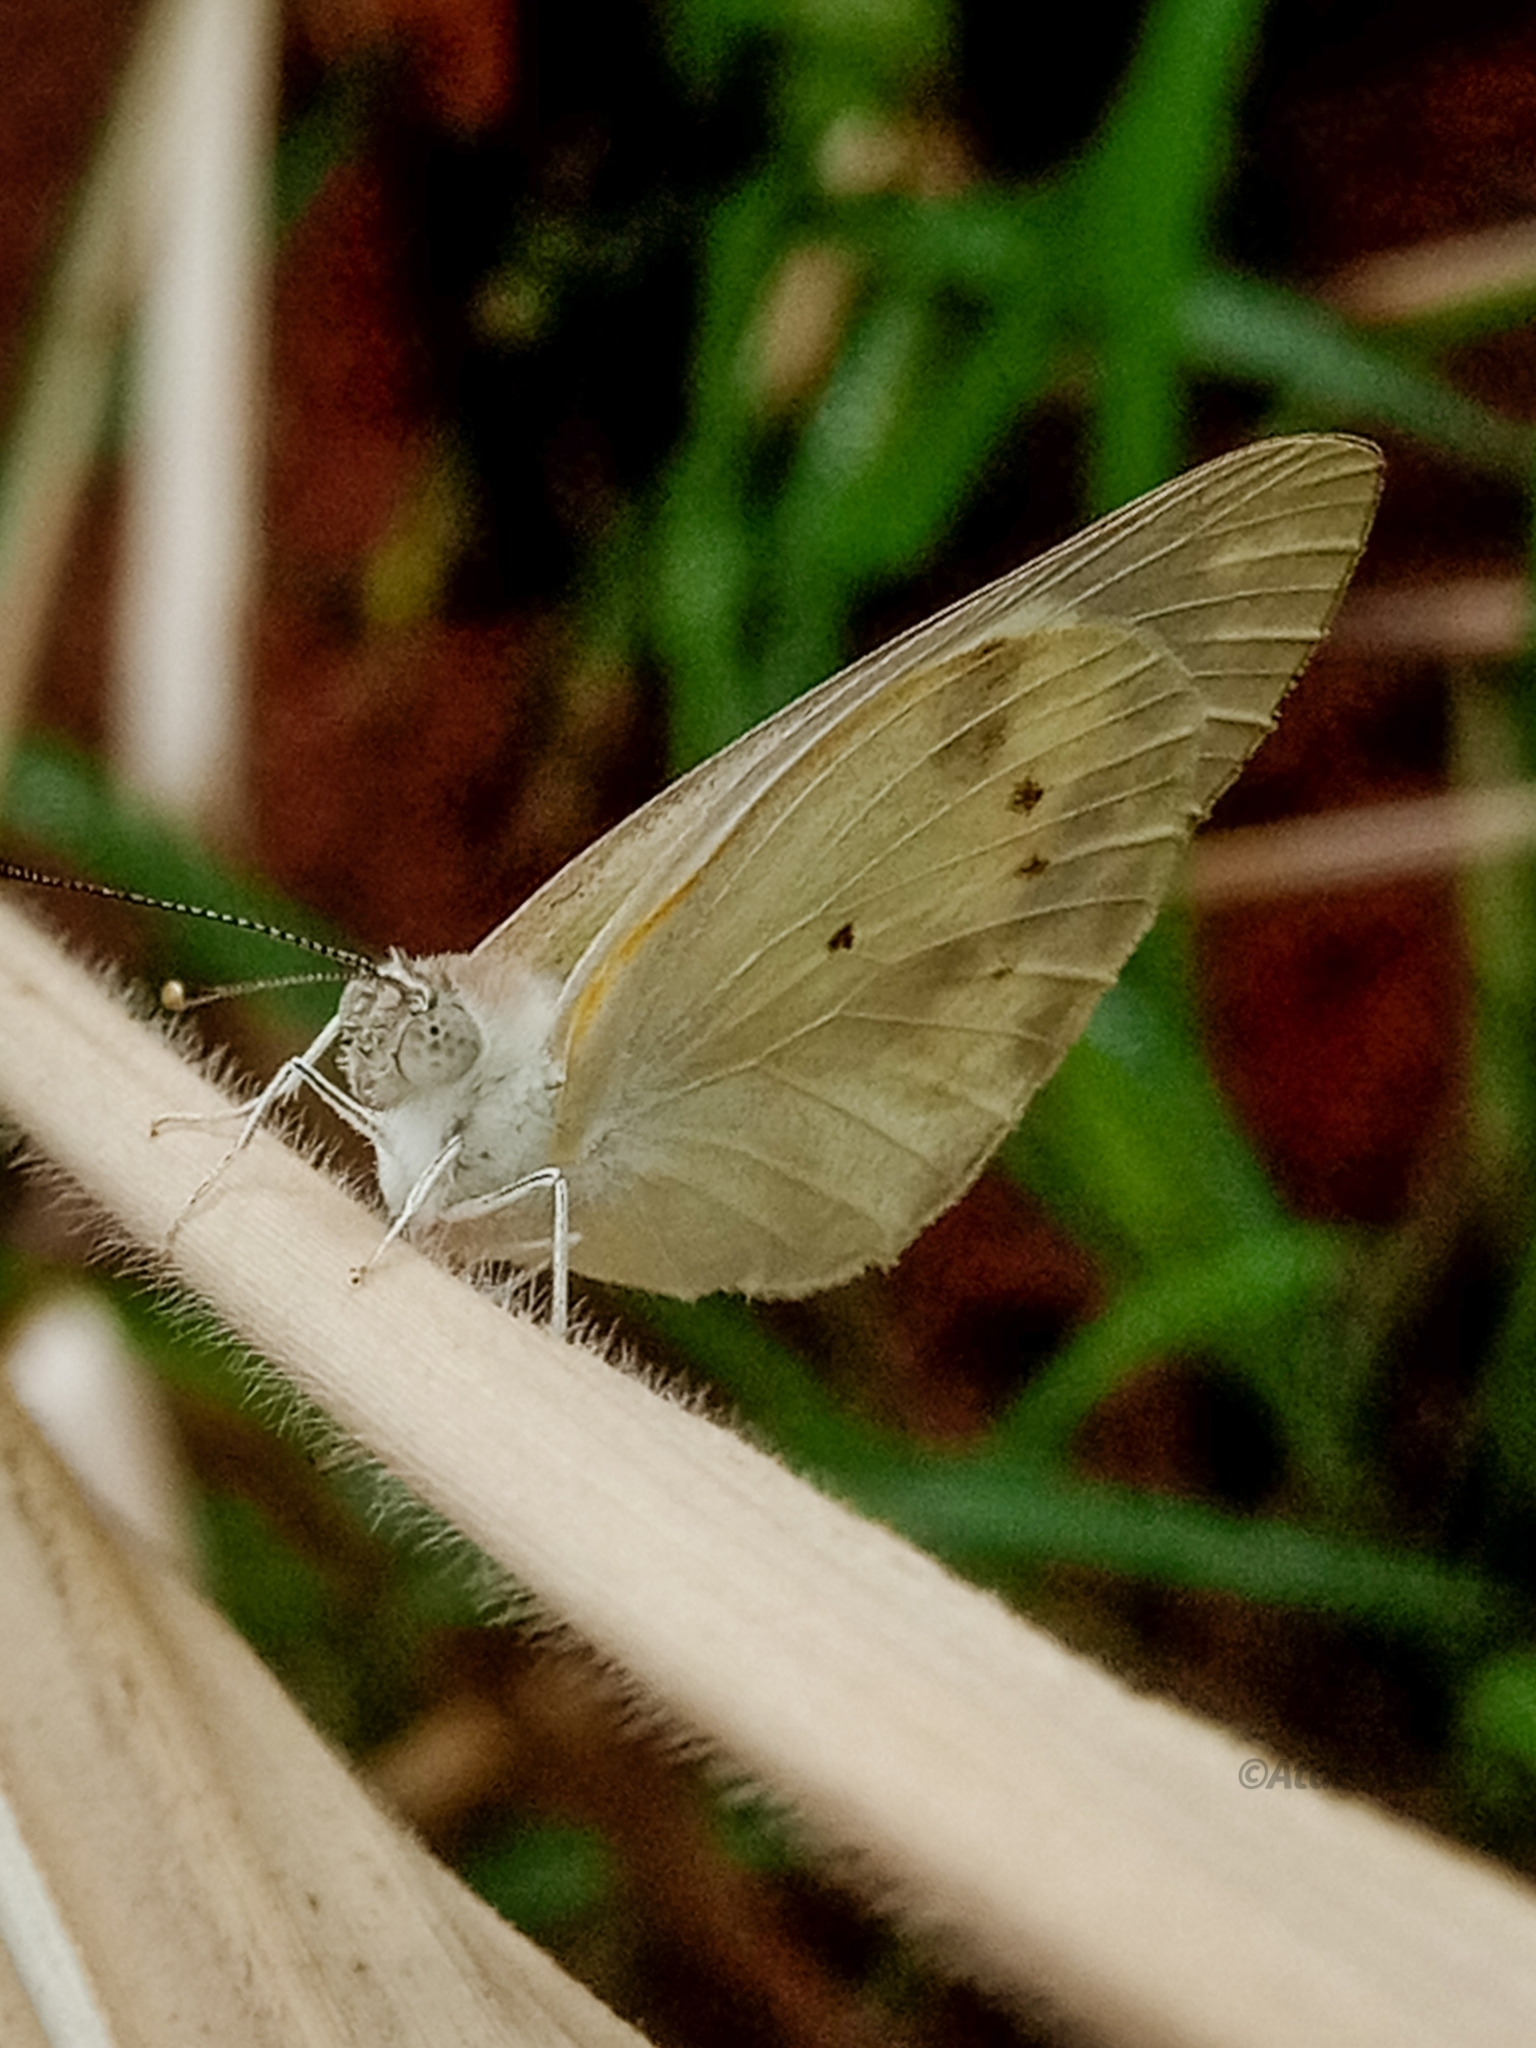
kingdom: Animalia
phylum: Arthropoda
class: Insecta
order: Lepidoptera
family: Pieridae
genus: Colotis
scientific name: Colotis eris
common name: Banded gold tip
